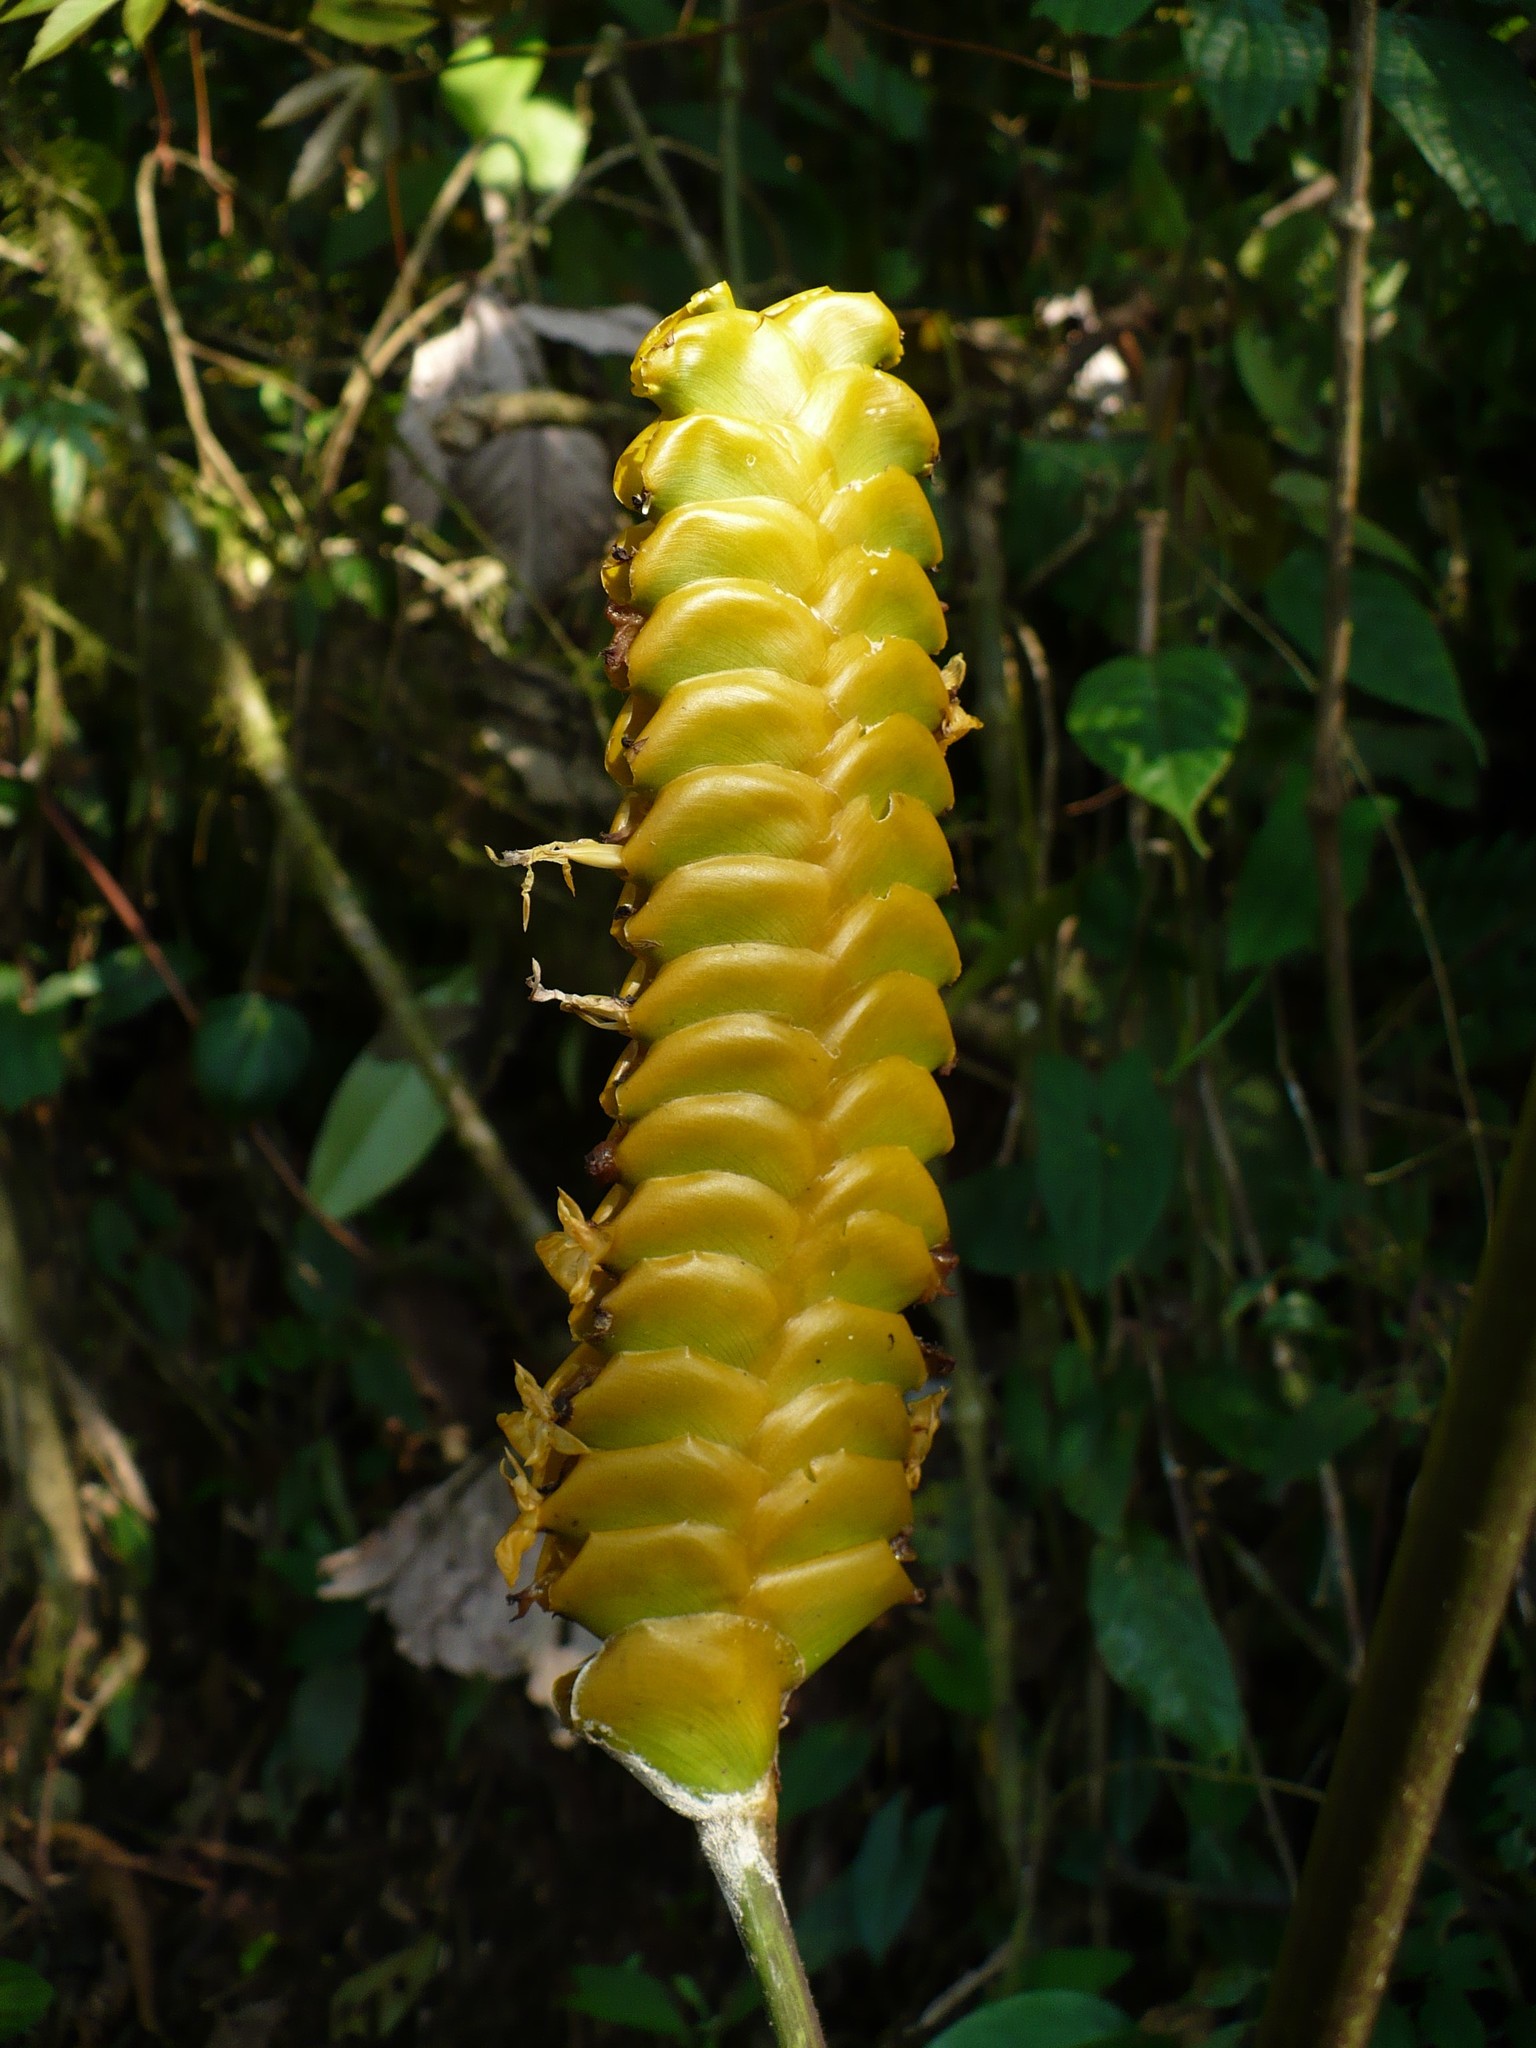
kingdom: Plantae
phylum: Tracheophyta
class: Liliopsida
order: Zingiberales
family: Marantaceae
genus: Calathea
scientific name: Calathea crotalifera
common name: Rattlesnake plant
